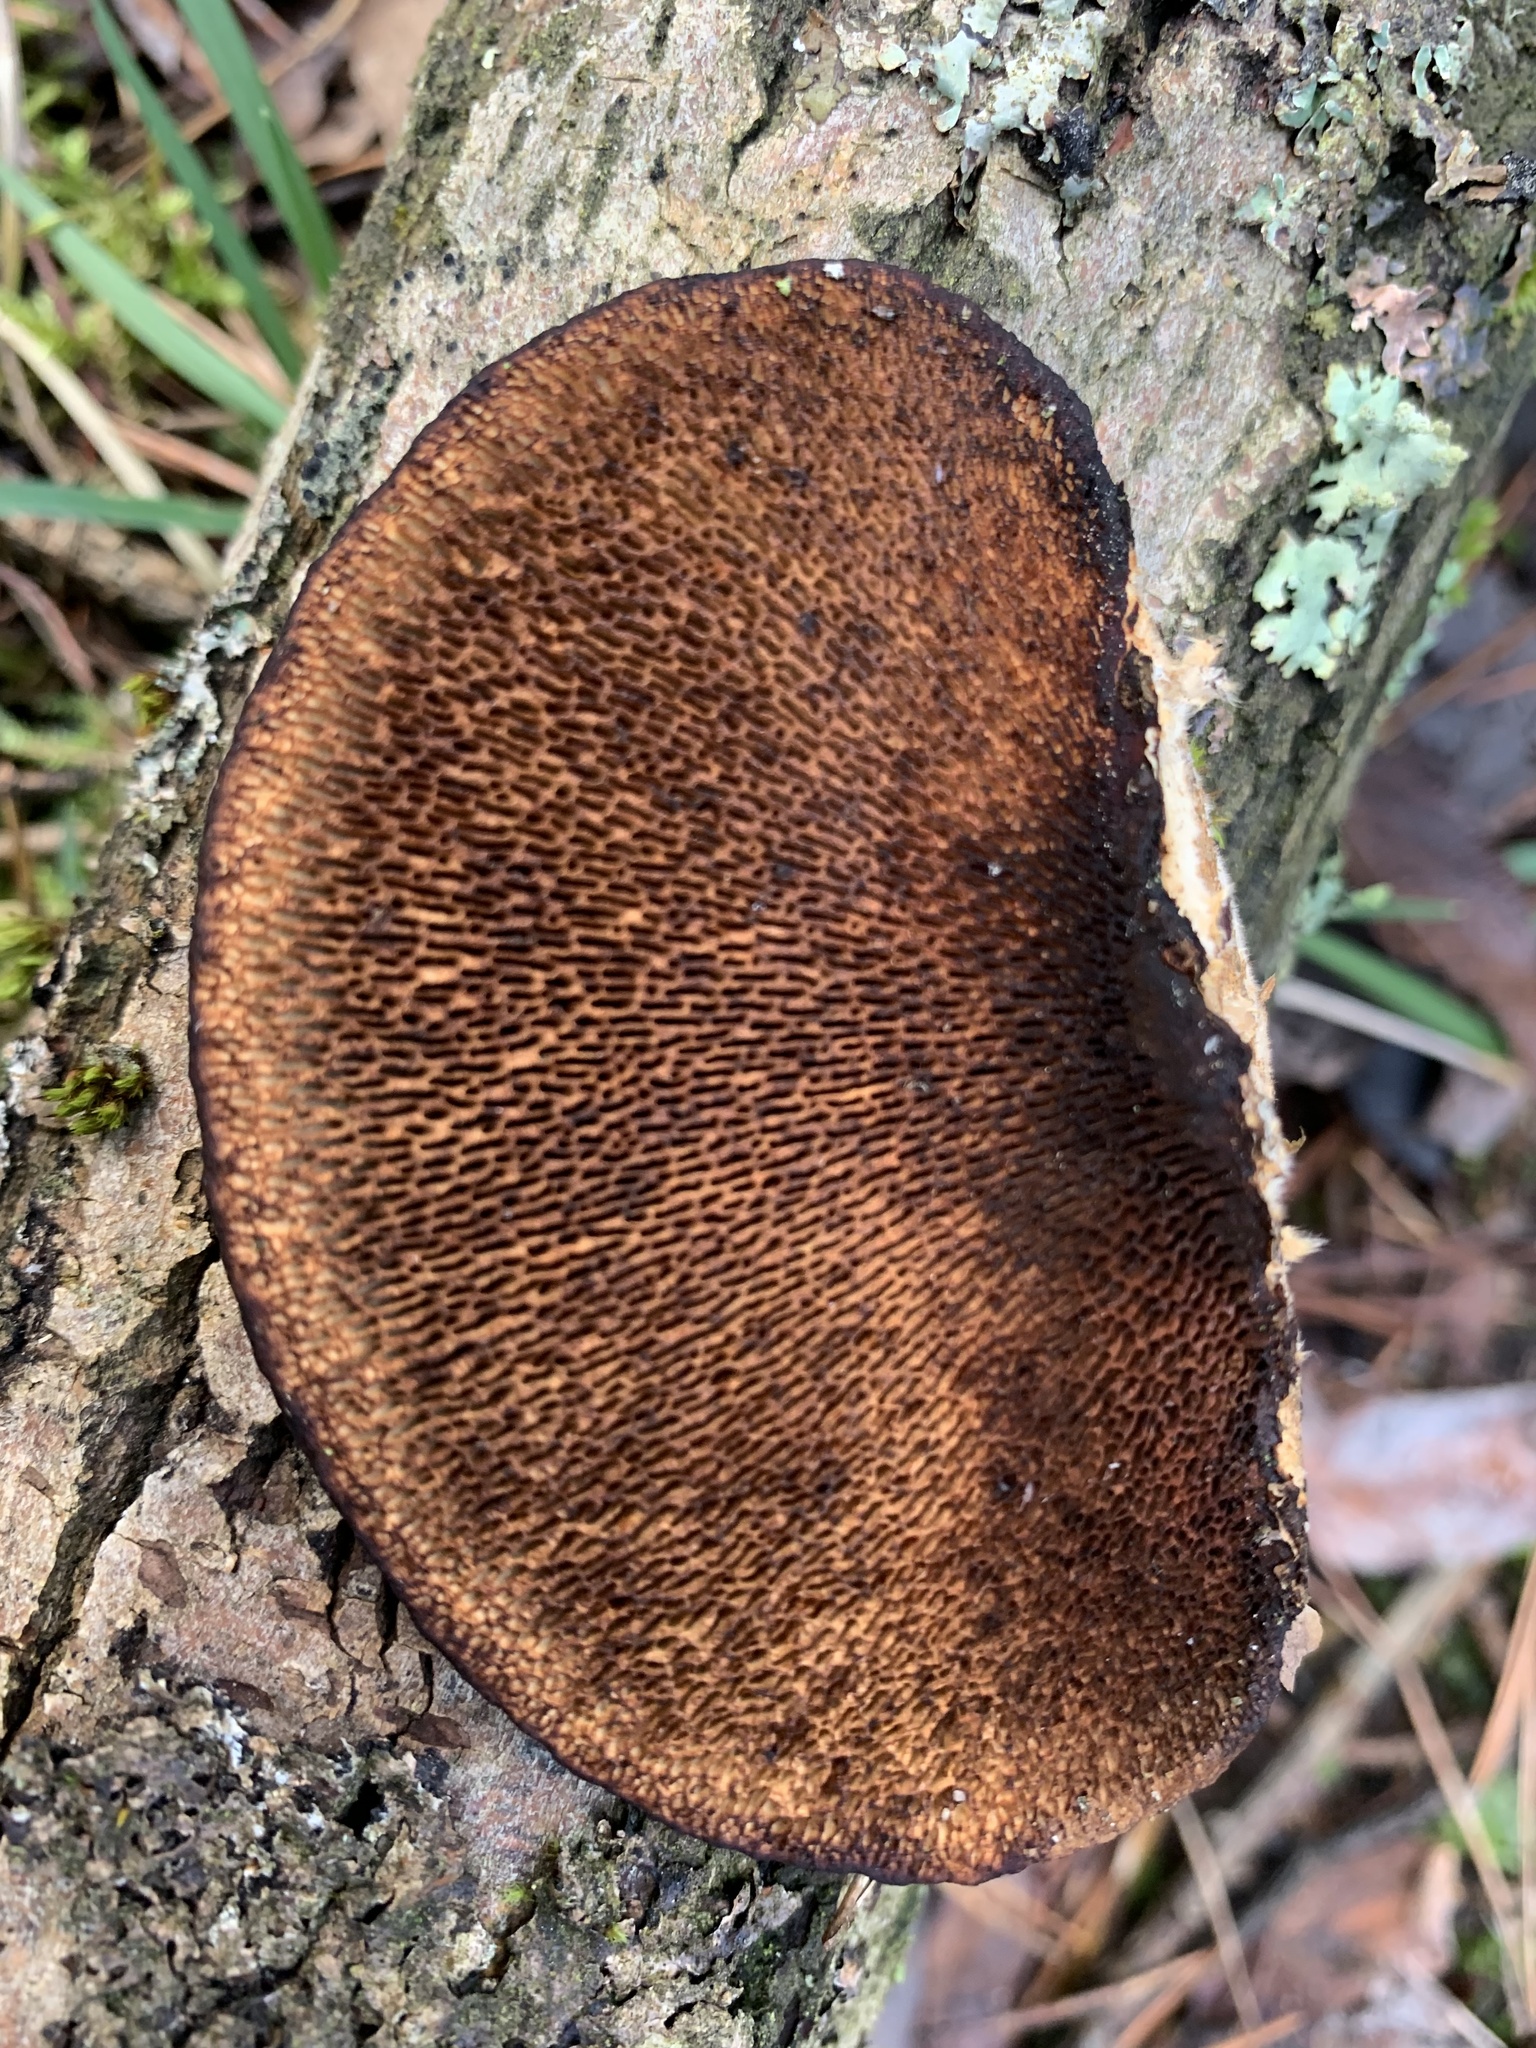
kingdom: Fungi
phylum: Basidiomycota
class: Agaricomycetes
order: Polyporales
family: Polyporaceae
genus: Daedaleopsis
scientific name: Daedaleopsis confragosa
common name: Blushing bracket
